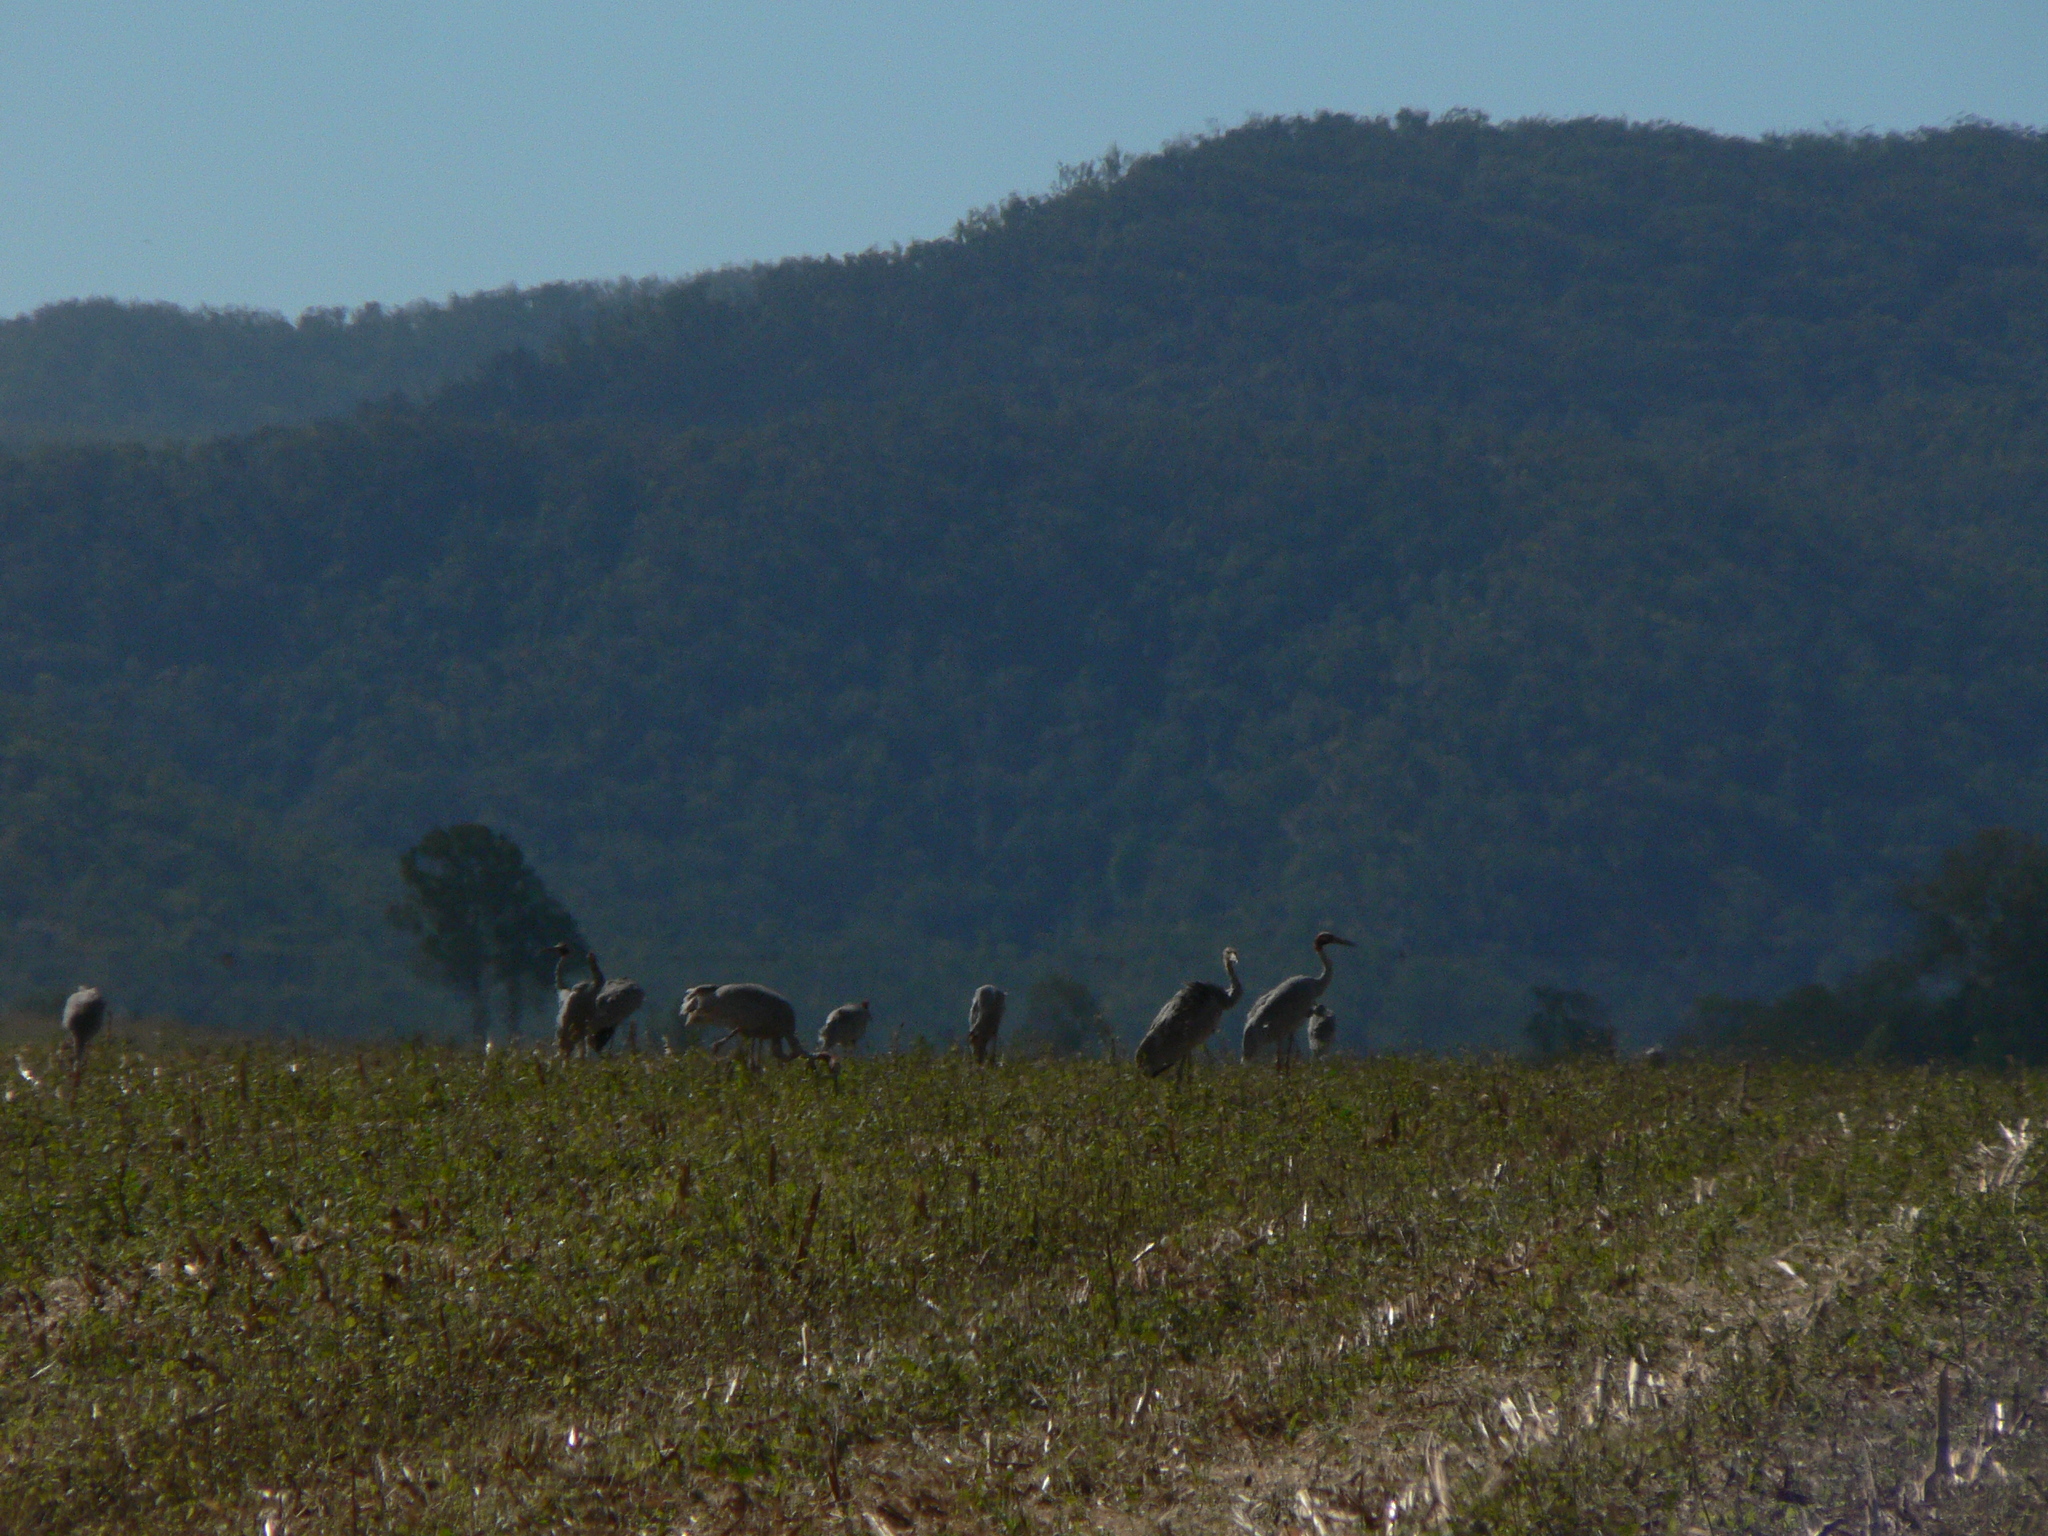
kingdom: Animalia
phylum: Chordata
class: Aves
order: Gruiformes
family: Gruidae
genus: Grus
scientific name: Grus antigone
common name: Sarus crane
